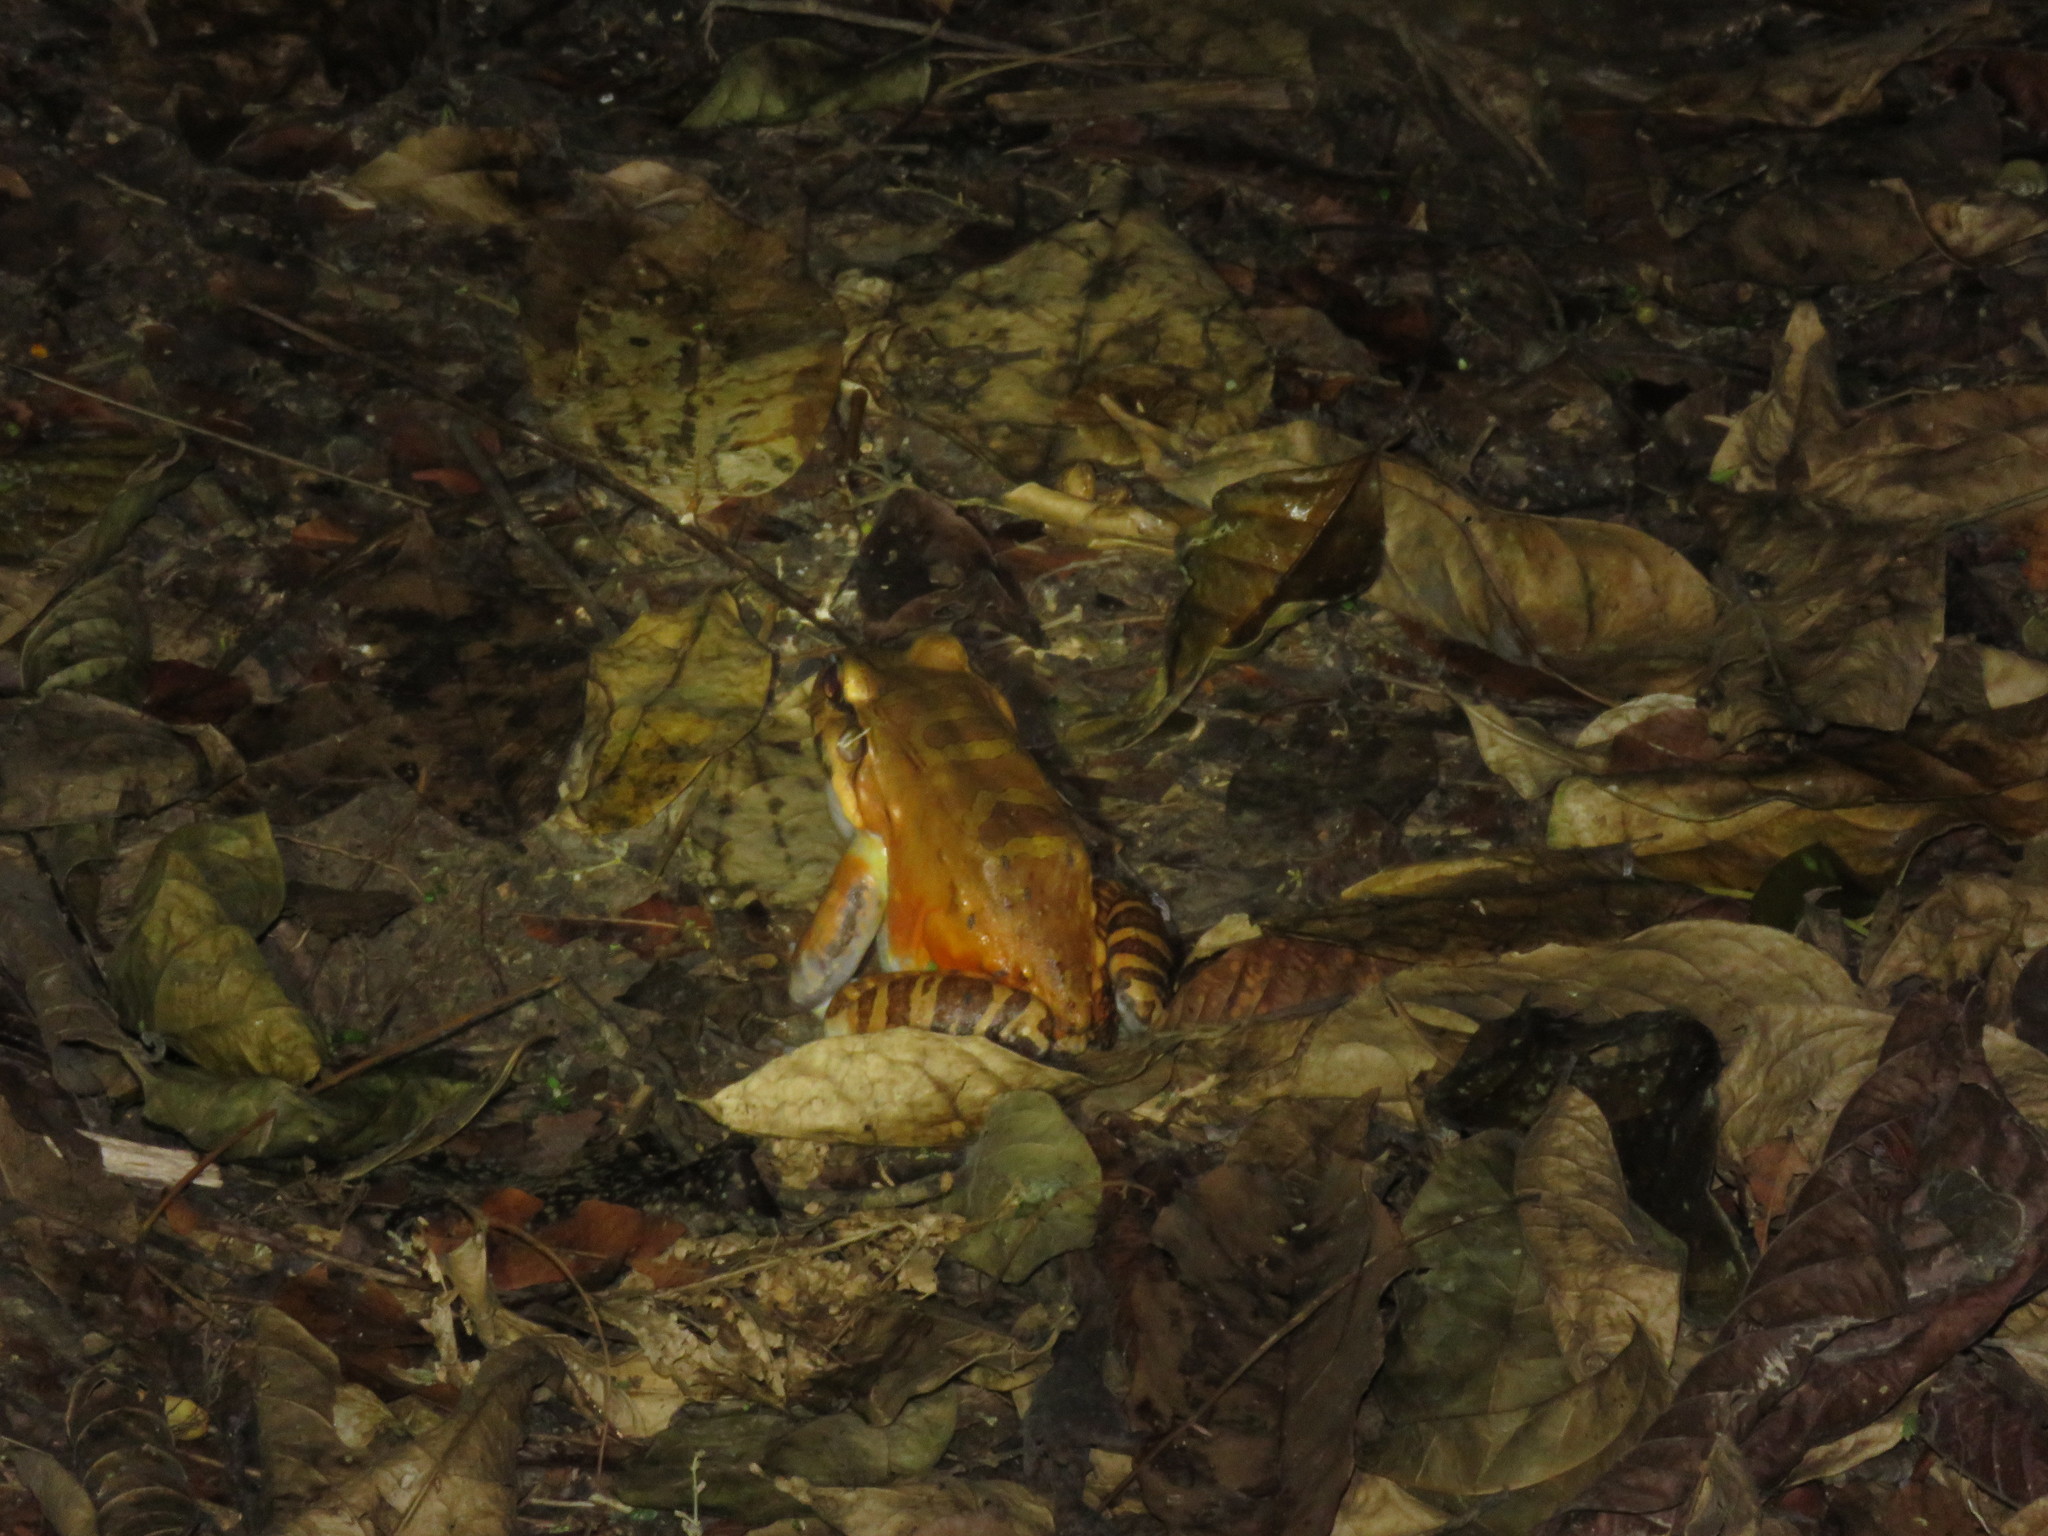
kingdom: Animalia
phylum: Chordata
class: Amphibia
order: Anura
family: Leptodactylidae
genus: Leptodactylus
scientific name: Leptodactylus knudseni
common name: Knudsen's frog
